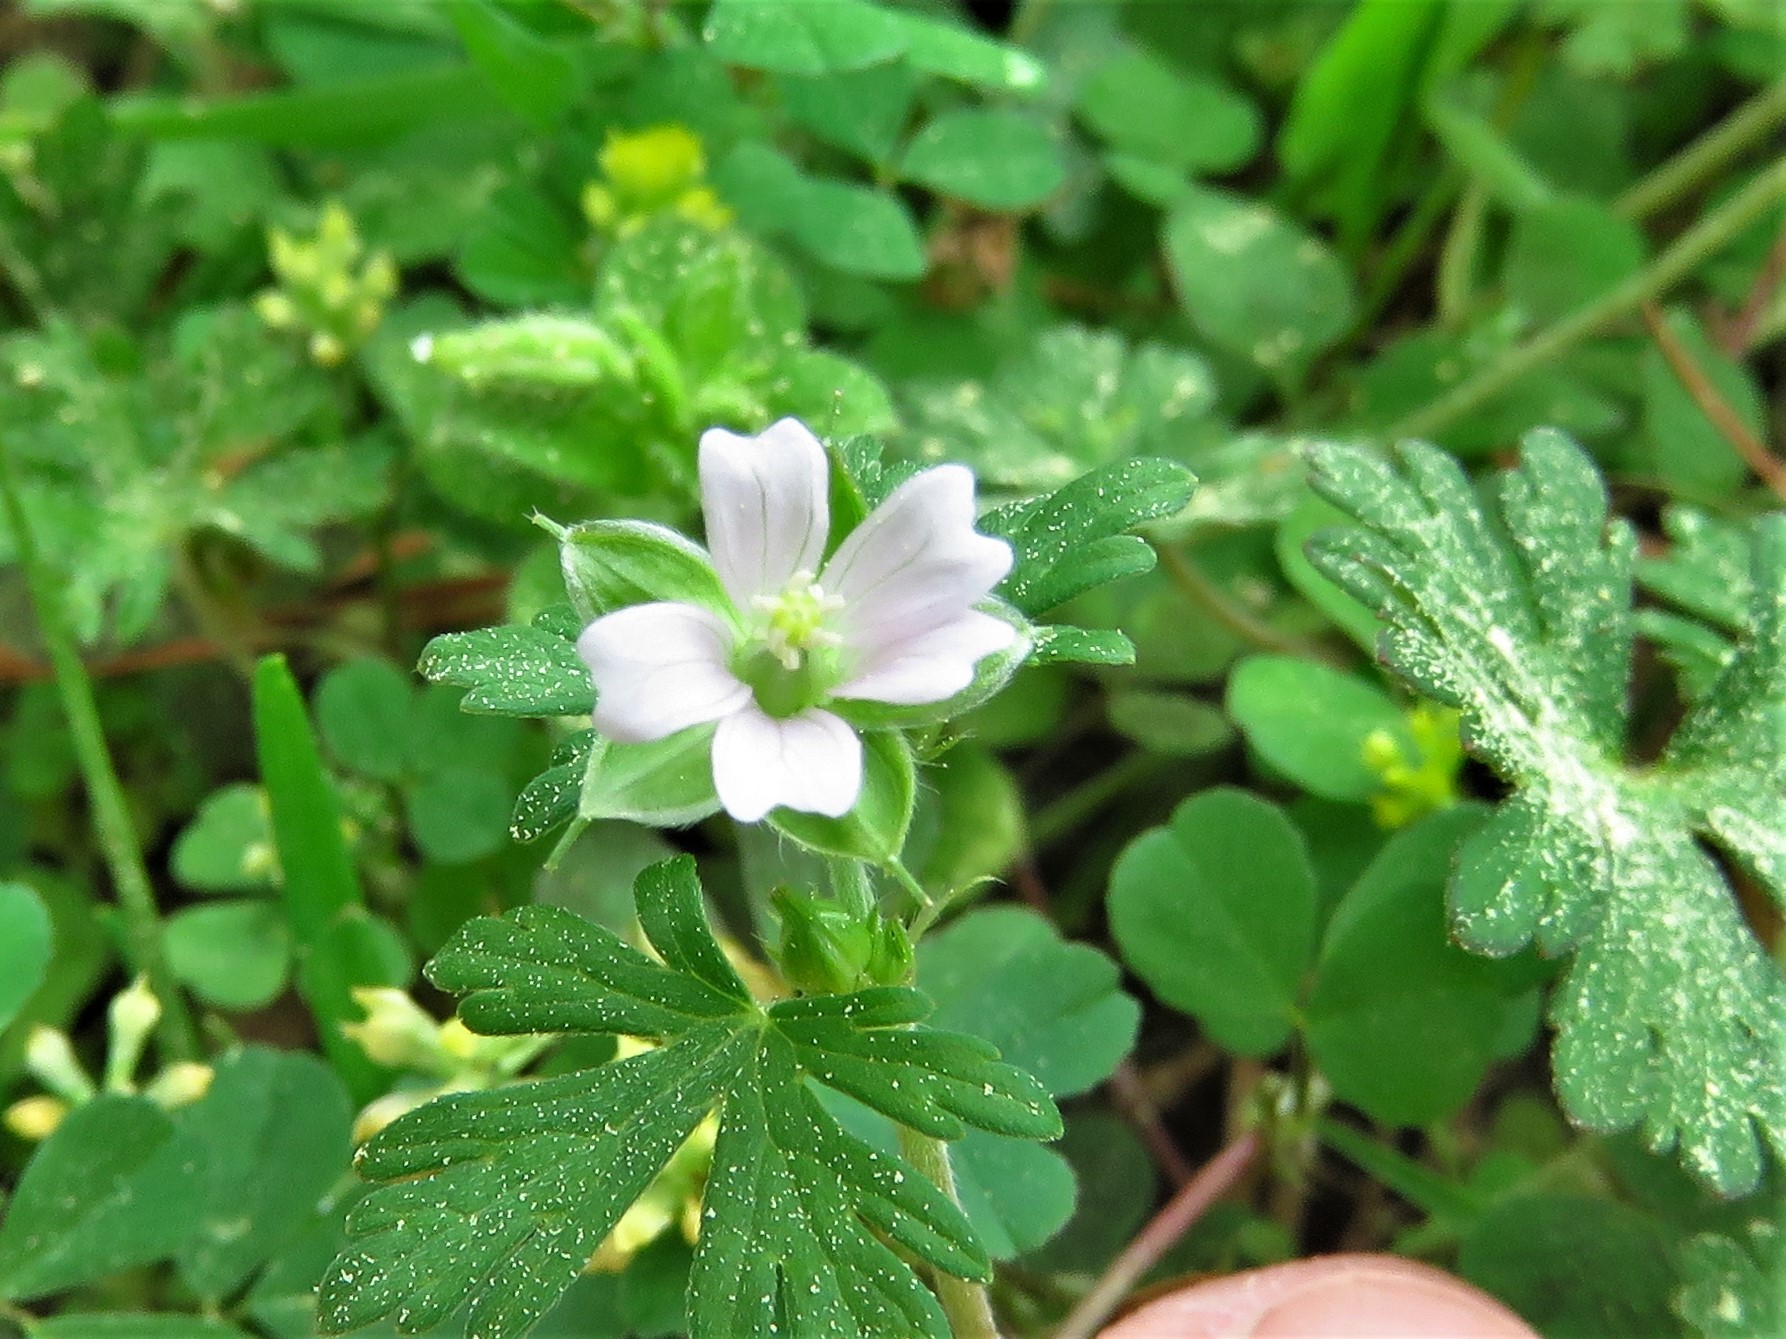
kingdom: Plantae
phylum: Tracheophyta
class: Magnoliopsida
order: Geraniales
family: Geraniaceae
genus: Geranium
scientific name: Geranium carolinianum
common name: Carolina crane's-bill
